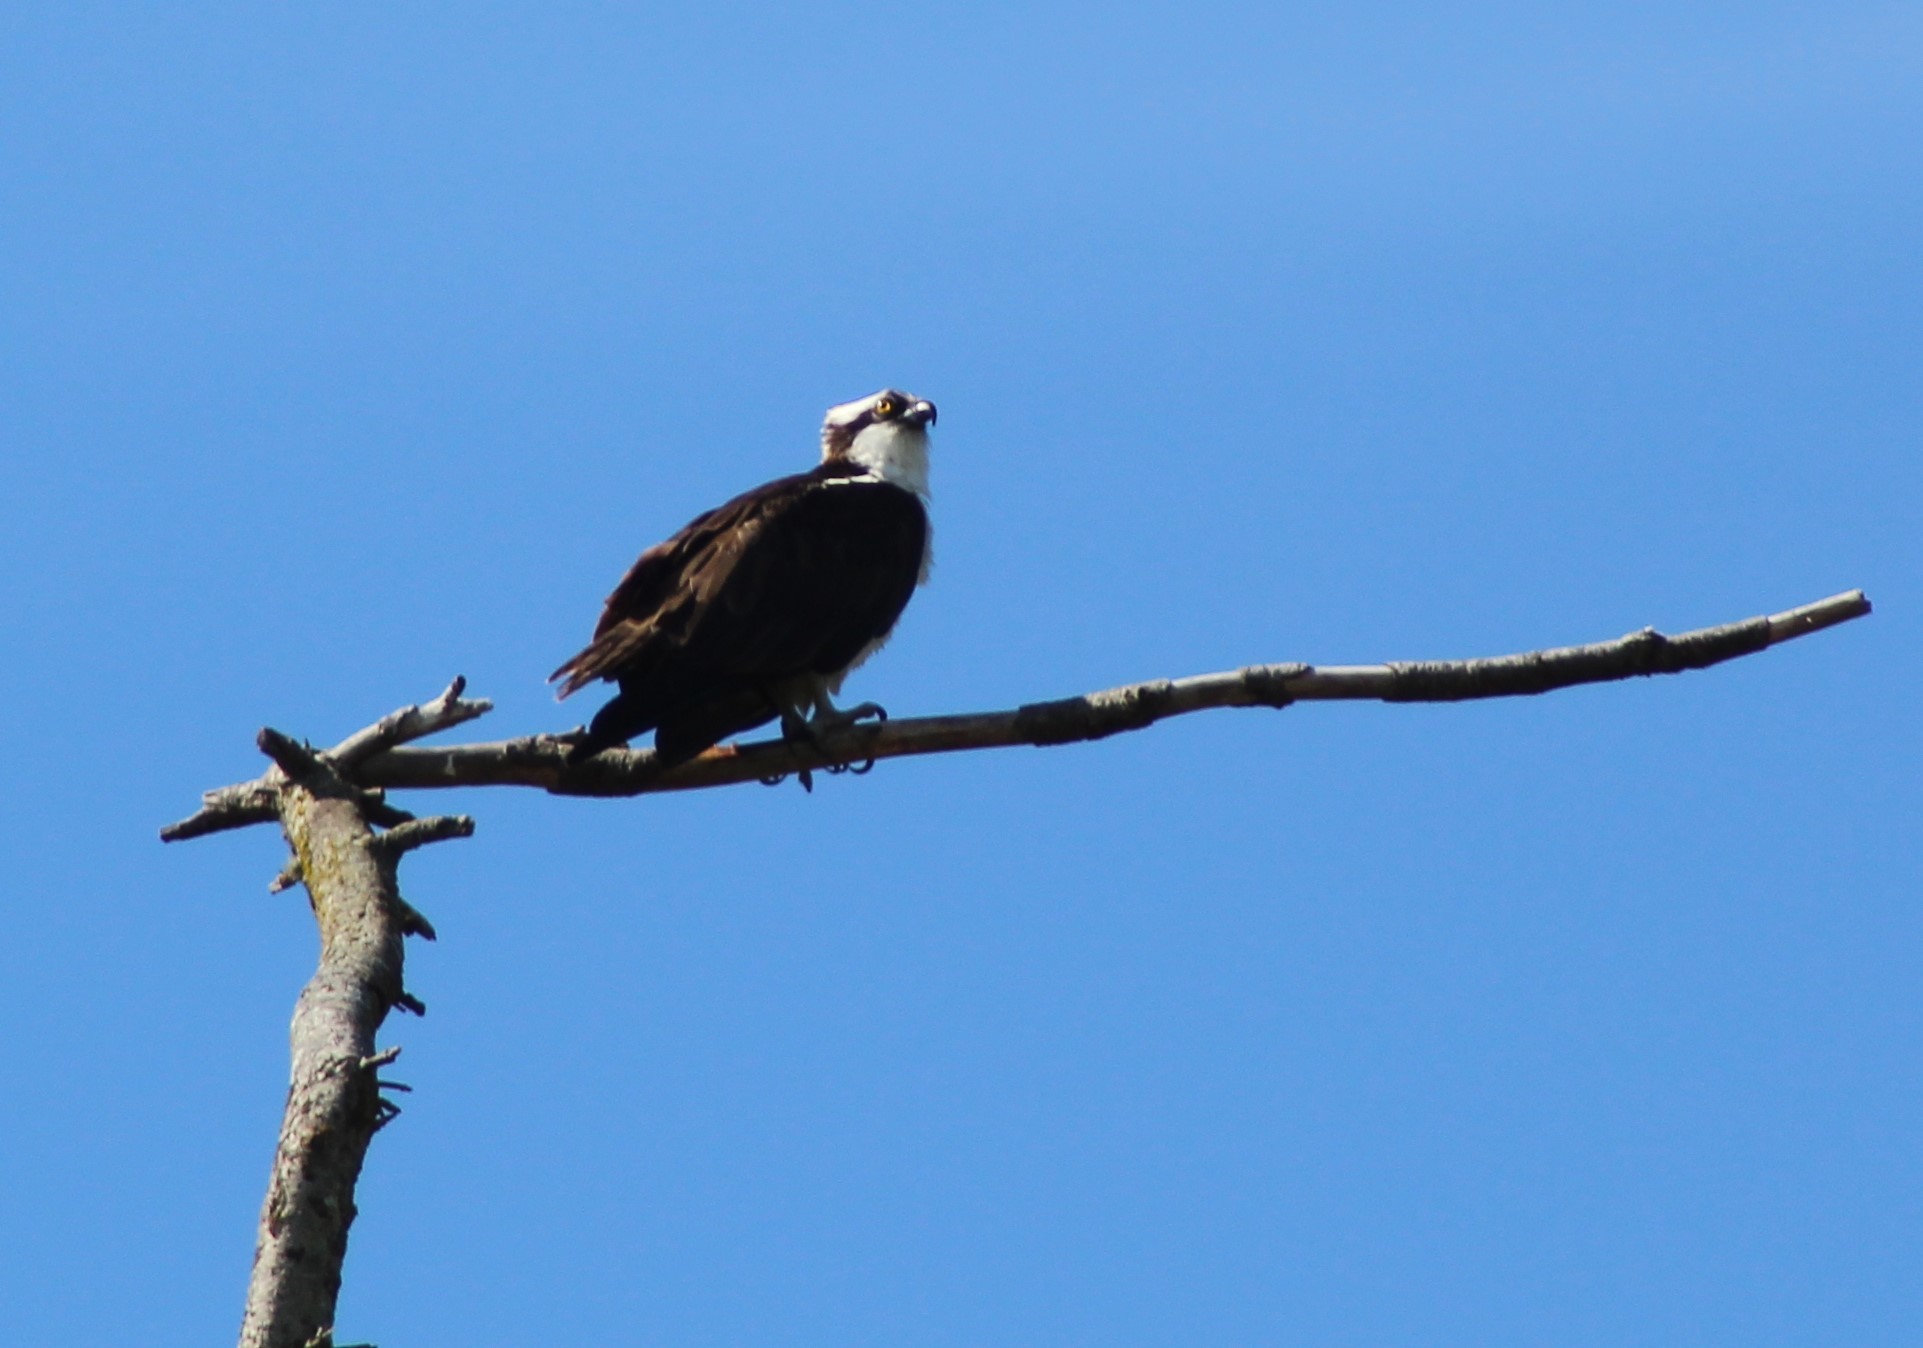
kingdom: Animalia
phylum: Chordata
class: Aves
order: Accipitriformes
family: Pandionidae
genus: Pandion
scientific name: Pandion haliaetus
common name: Osprey
